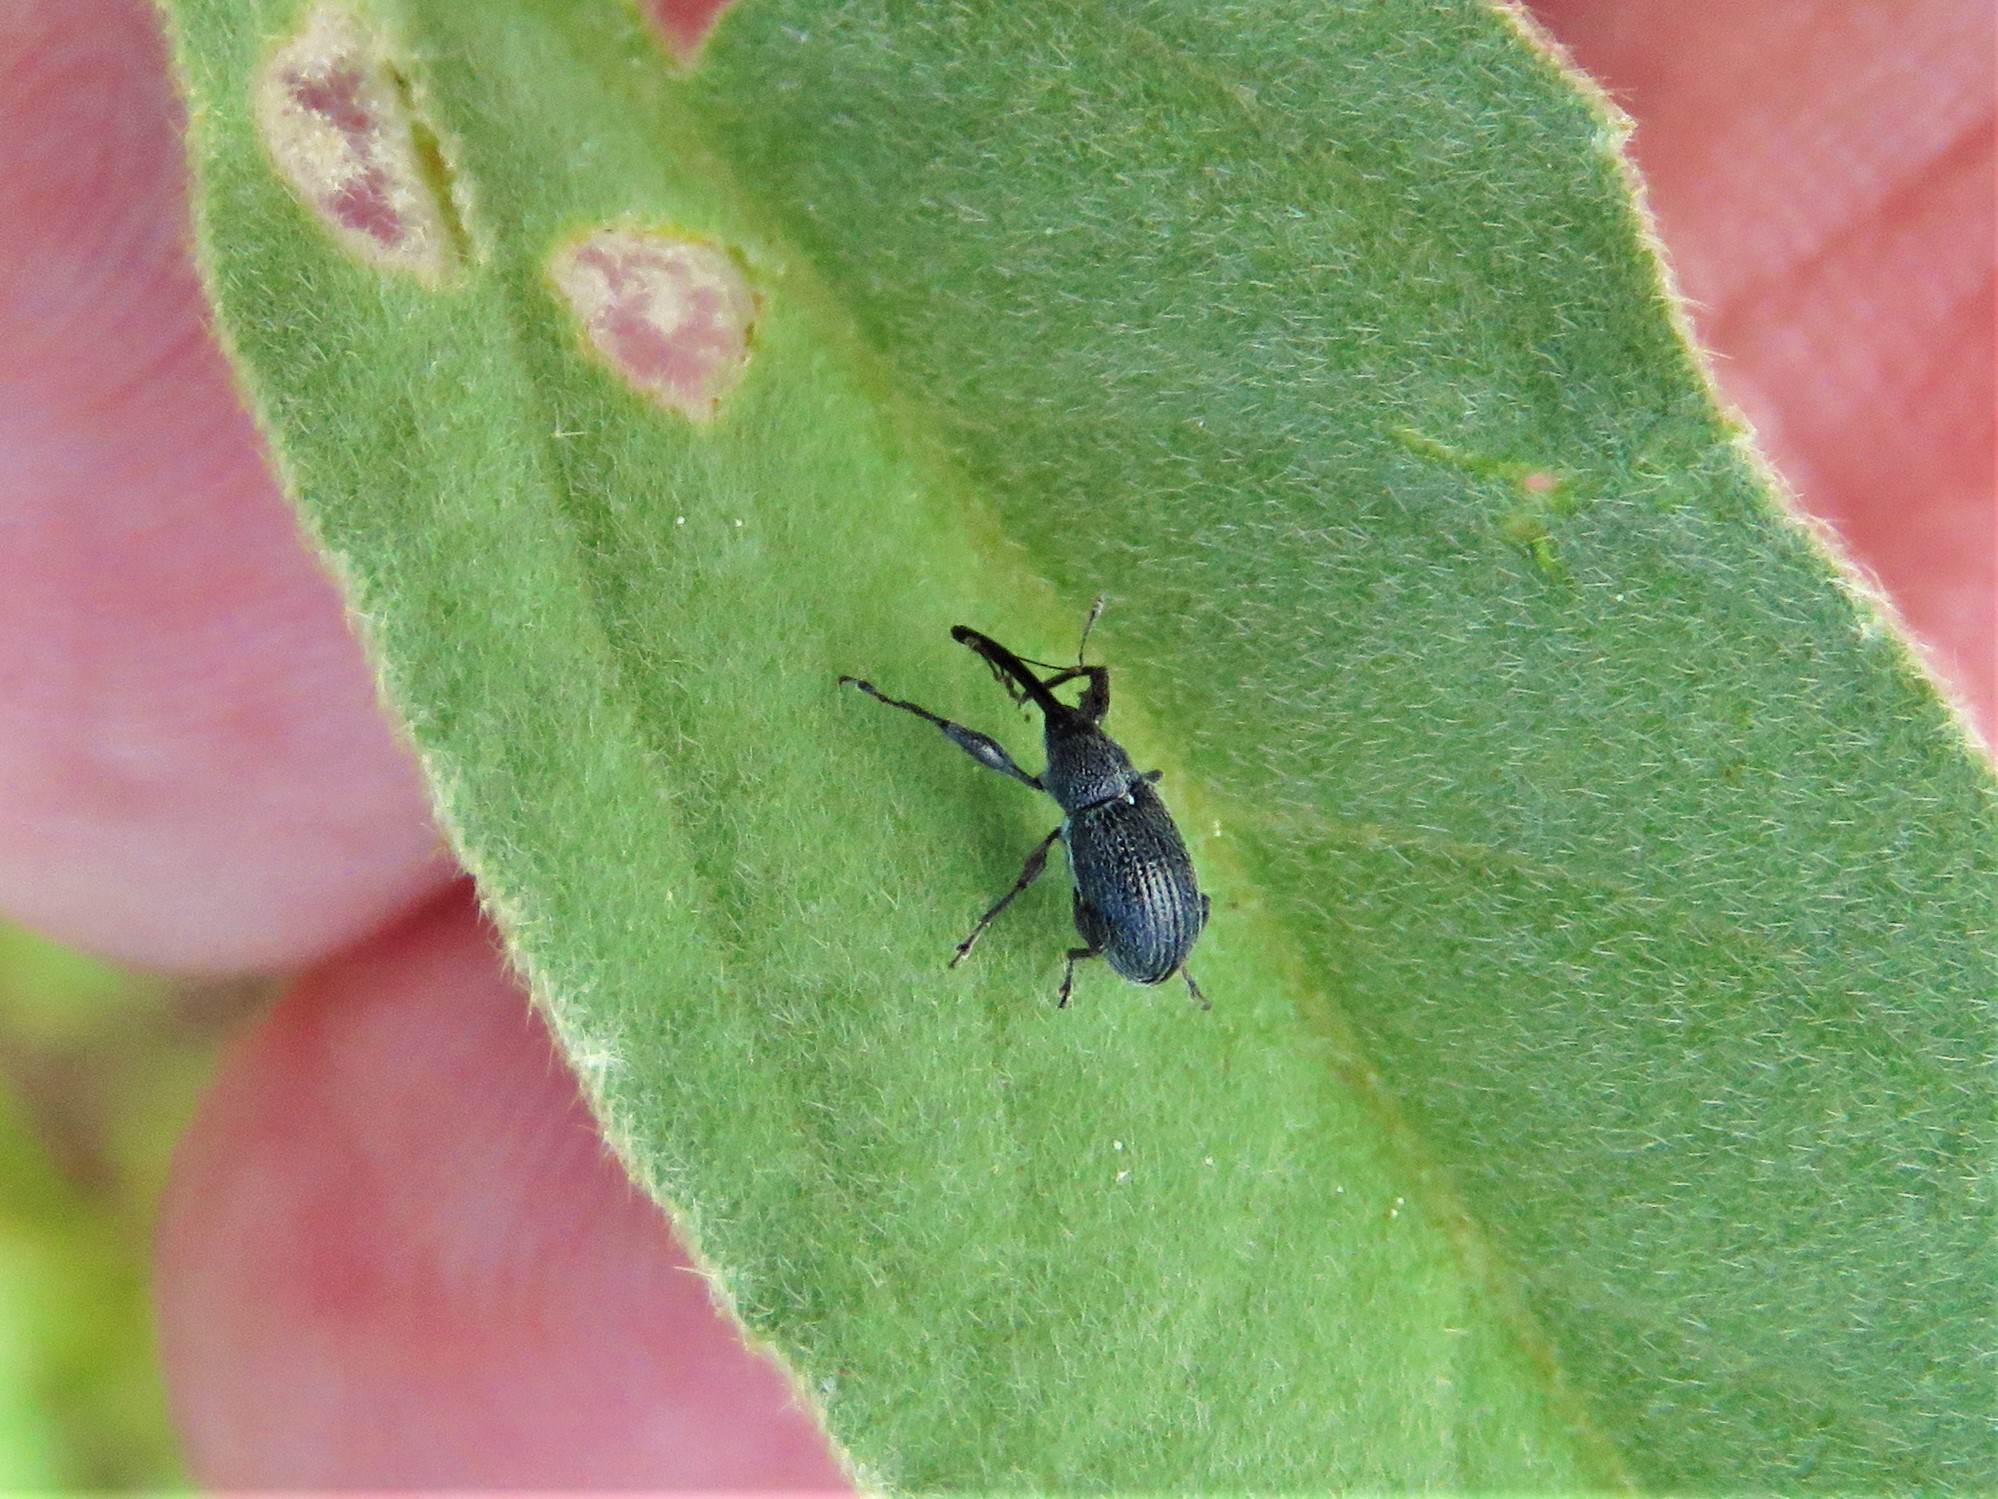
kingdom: Animalia
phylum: Arthropoda
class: Insecta
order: Coleoptera
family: Curculionidae
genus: Anthonomus
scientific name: Anthonomus albopilosus
